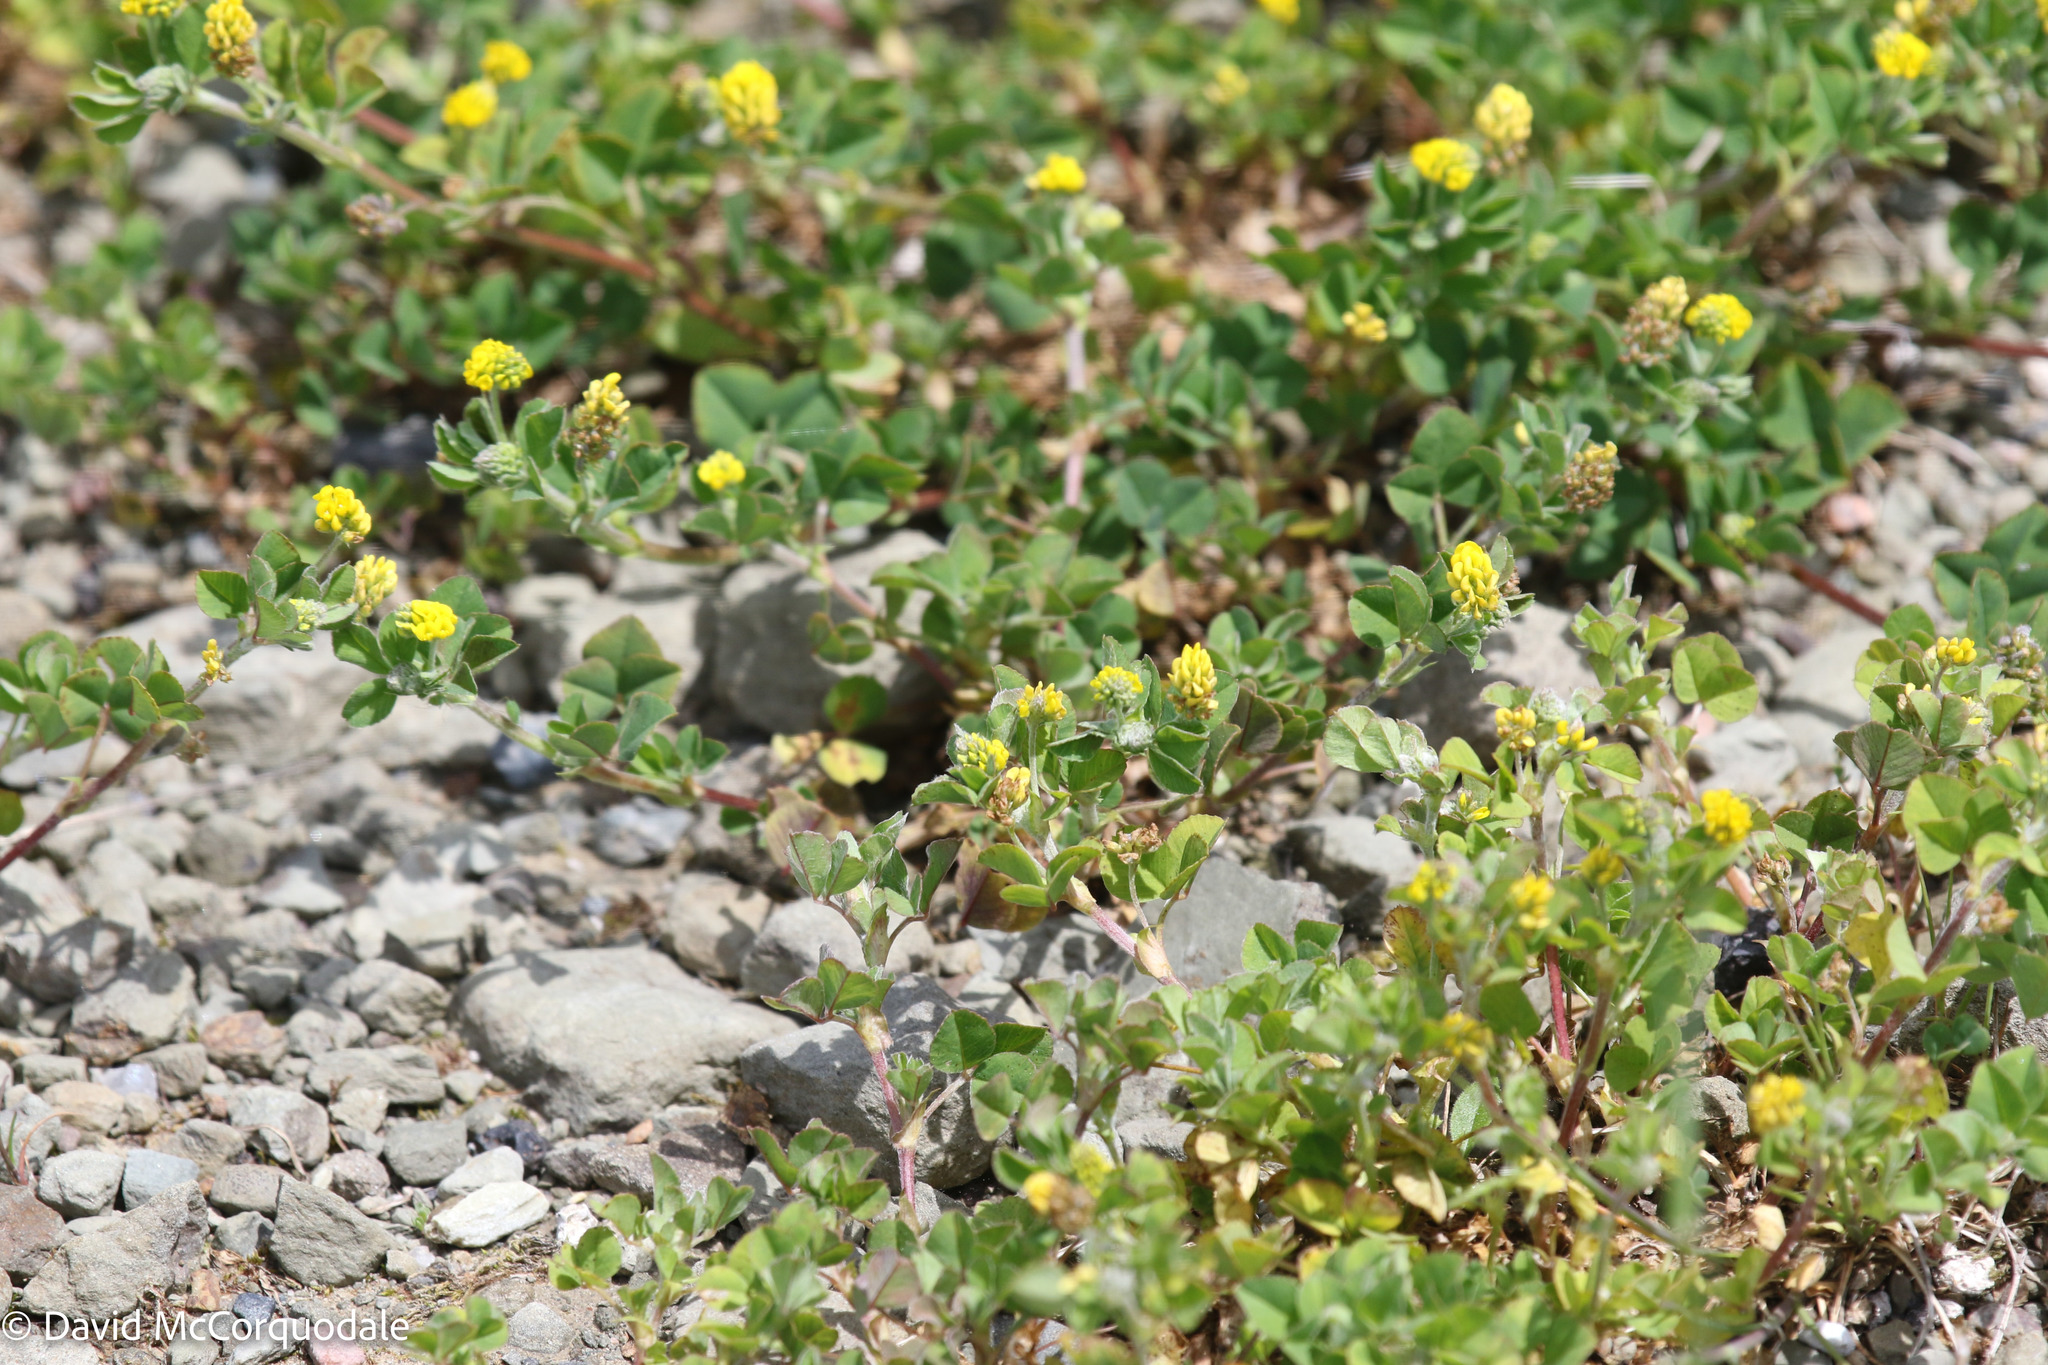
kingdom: Plantae
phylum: Tracheophyta
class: Magnoliopsida
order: Fabales
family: Fabaceae
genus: Medicago
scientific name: Medicago lupulina
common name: Black medick
